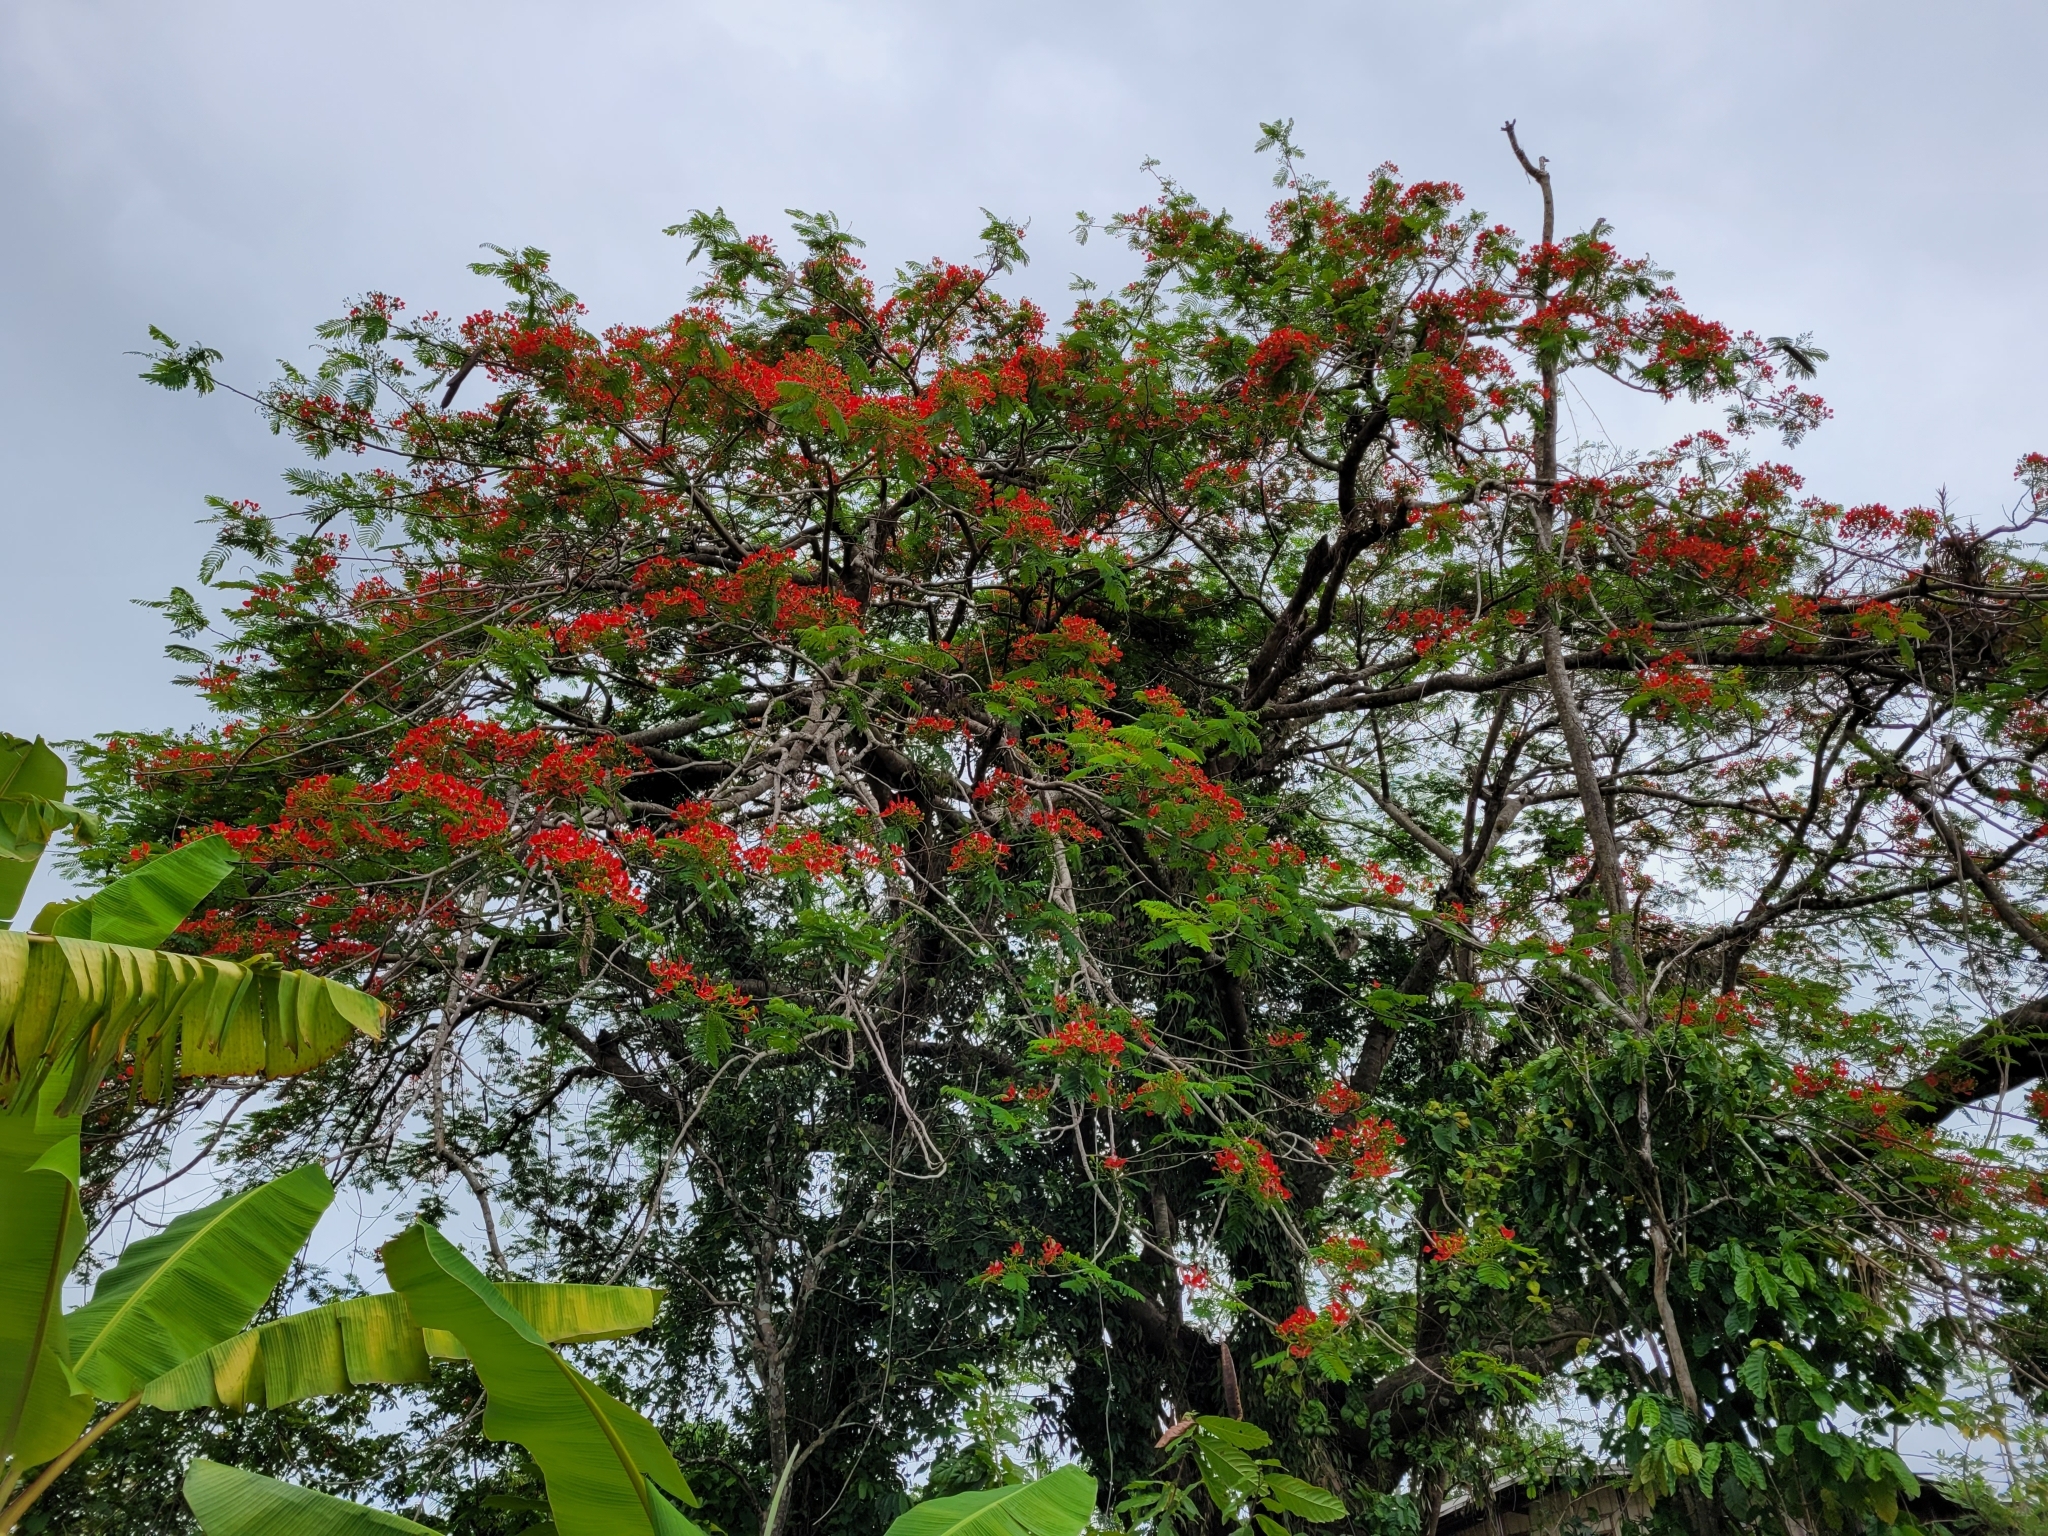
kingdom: Plantae
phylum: Tracheophyta
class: Magnoliopsida
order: Fabales
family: Fabaceae
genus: Delonix
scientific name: Delonix regia
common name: Royal poinciana
